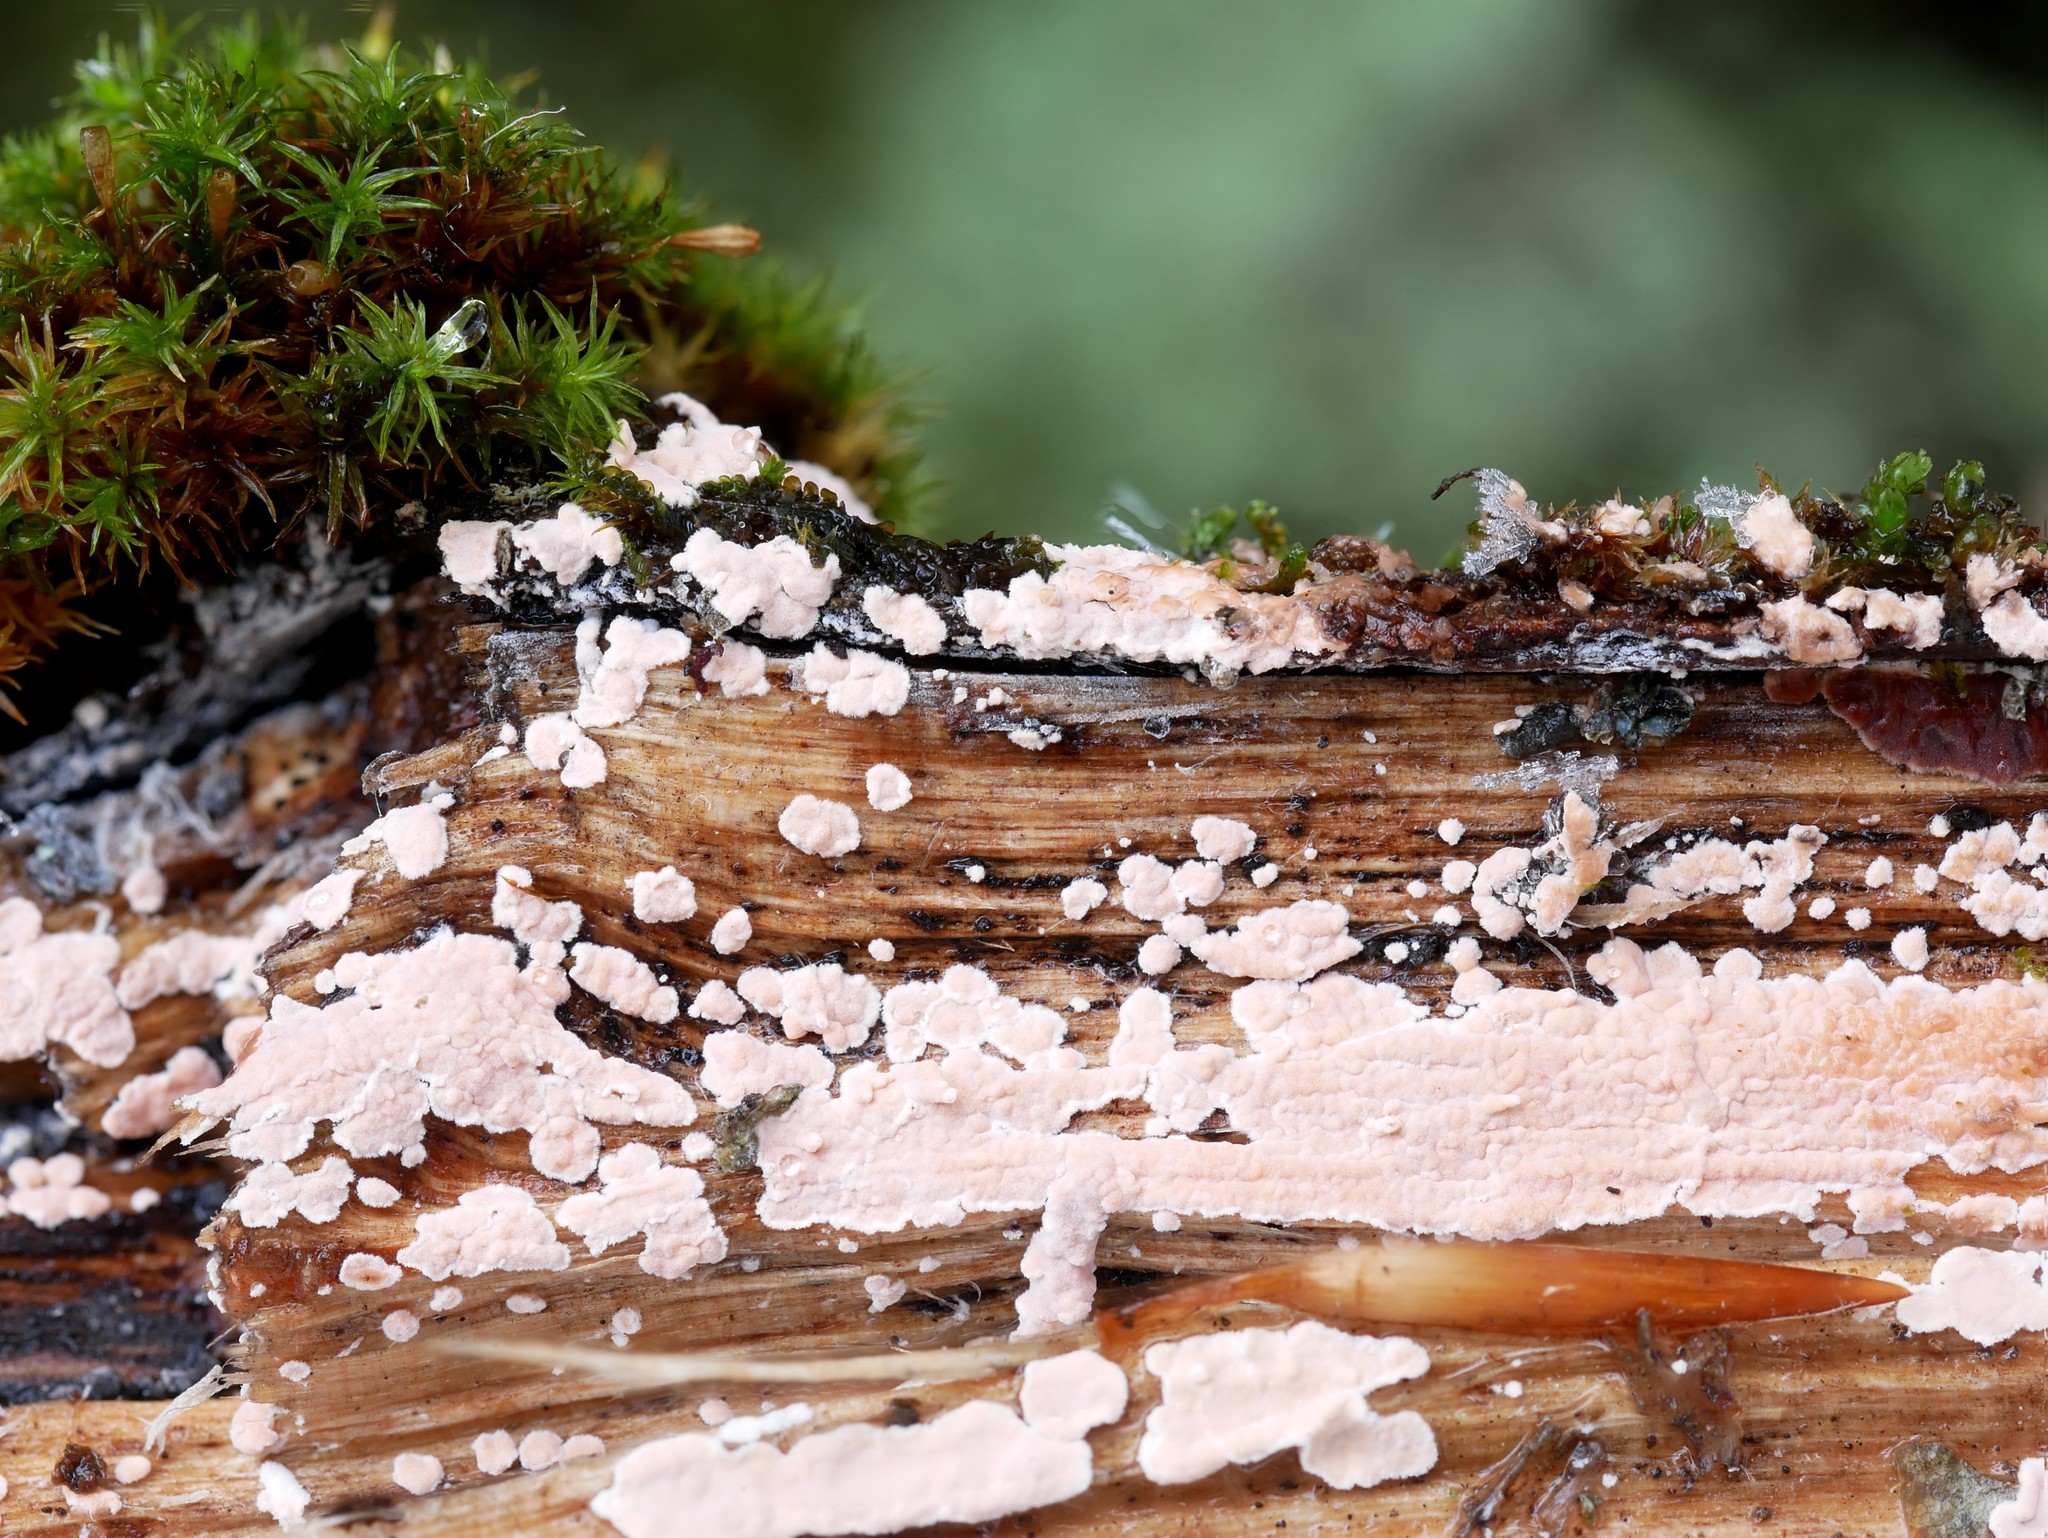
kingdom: Fungi
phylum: Basidiomycota
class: Agaricomycetes
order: Corticiales
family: Corticiaceae
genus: Corticium
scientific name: Corticium roseum
